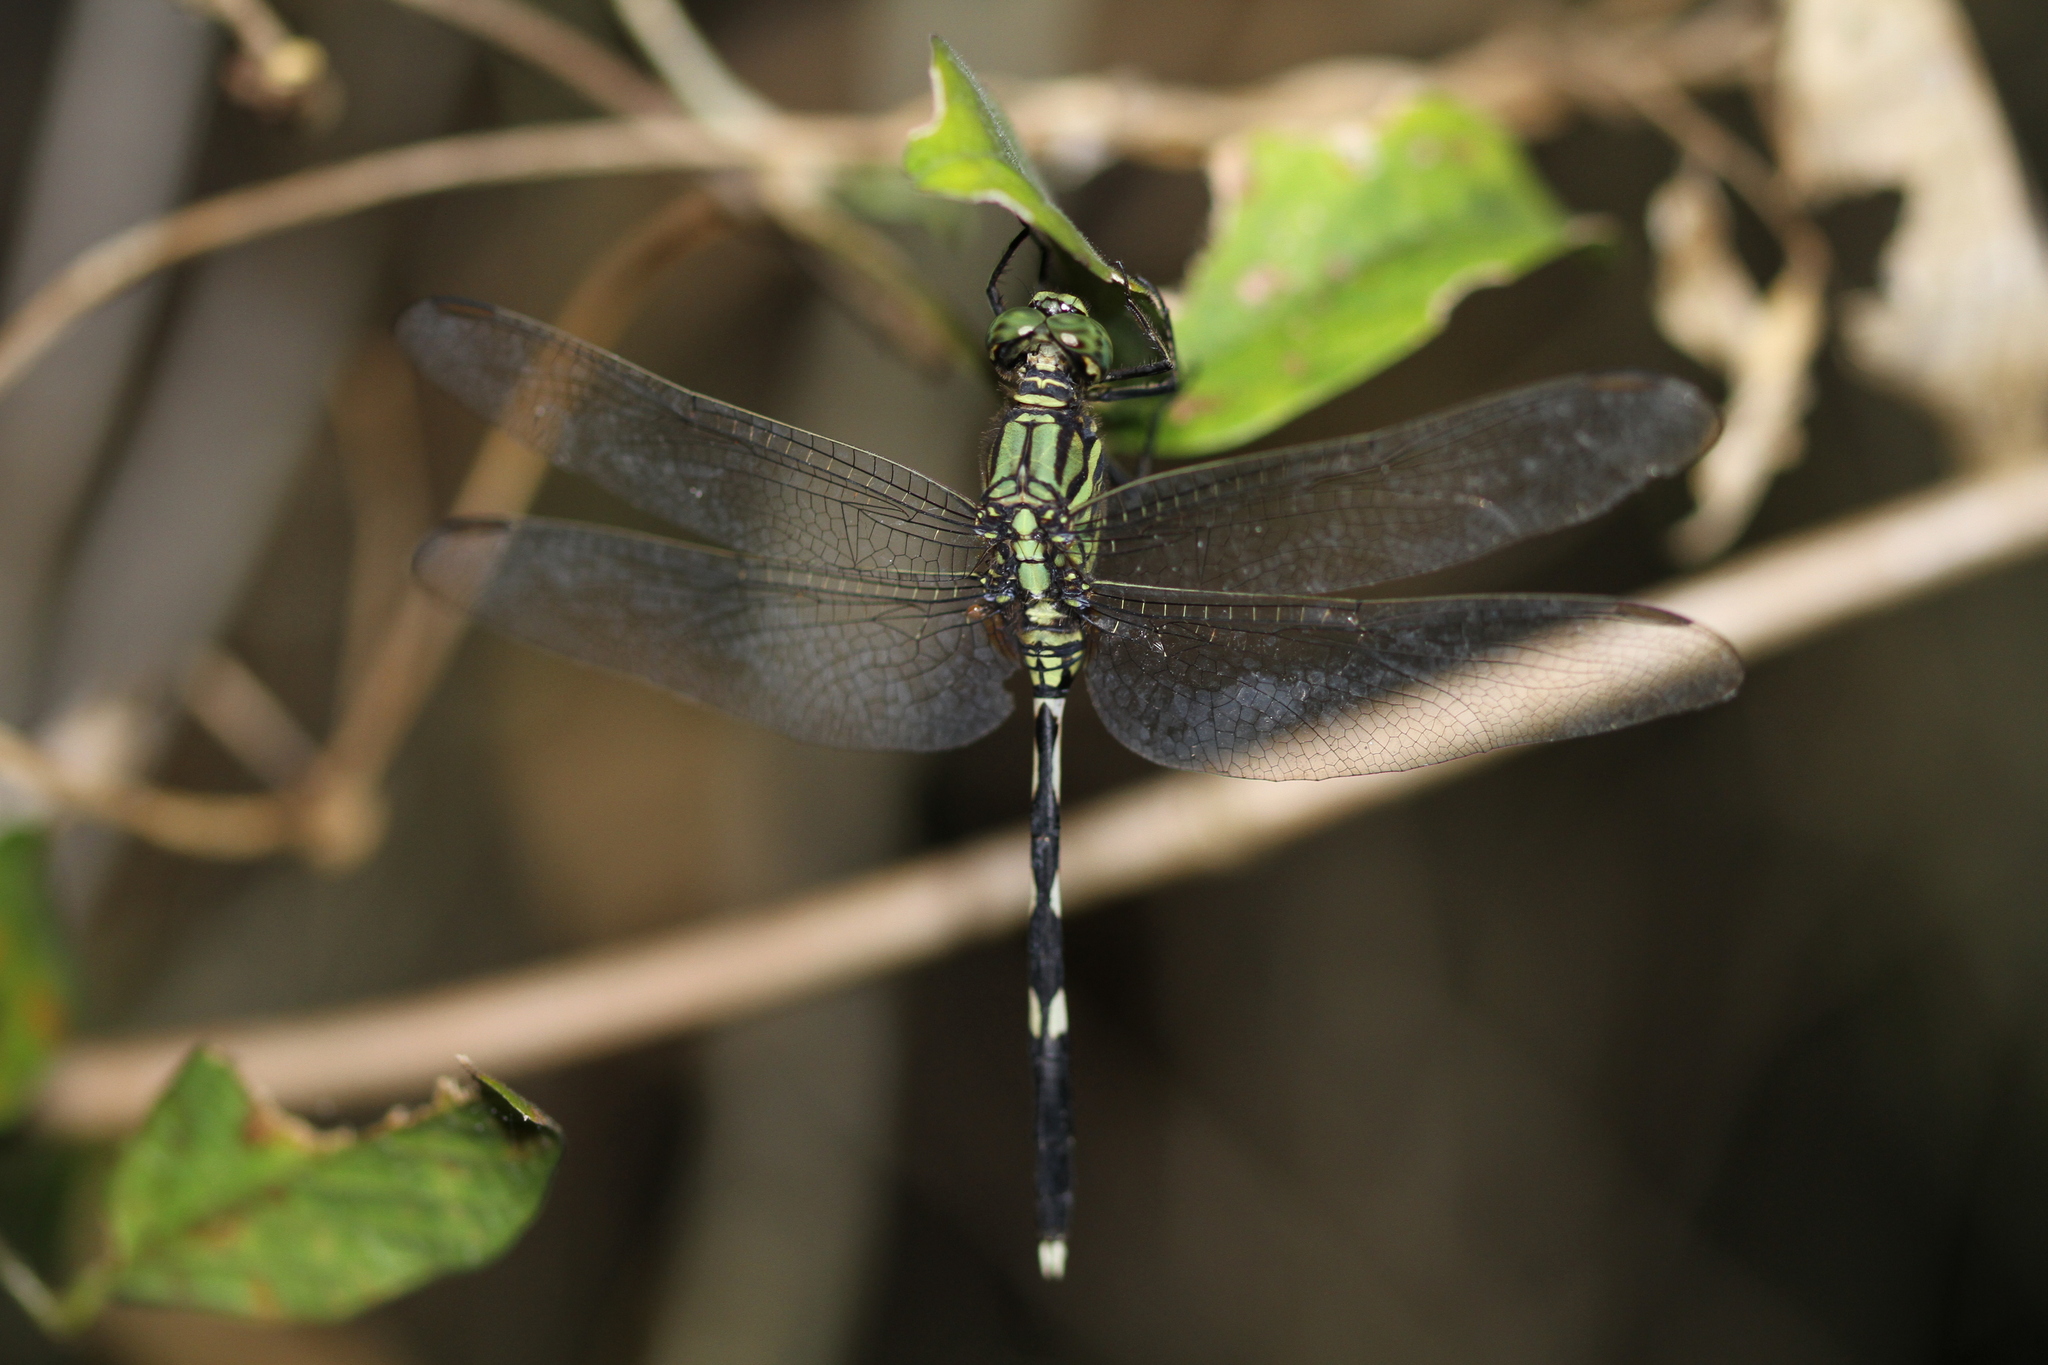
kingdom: Animalia
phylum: Arthropoda
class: Insecta
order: Odonata
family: Libellulidae
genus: Orthetrum
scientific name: Orthetrum sabina
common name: Slender skimmer
